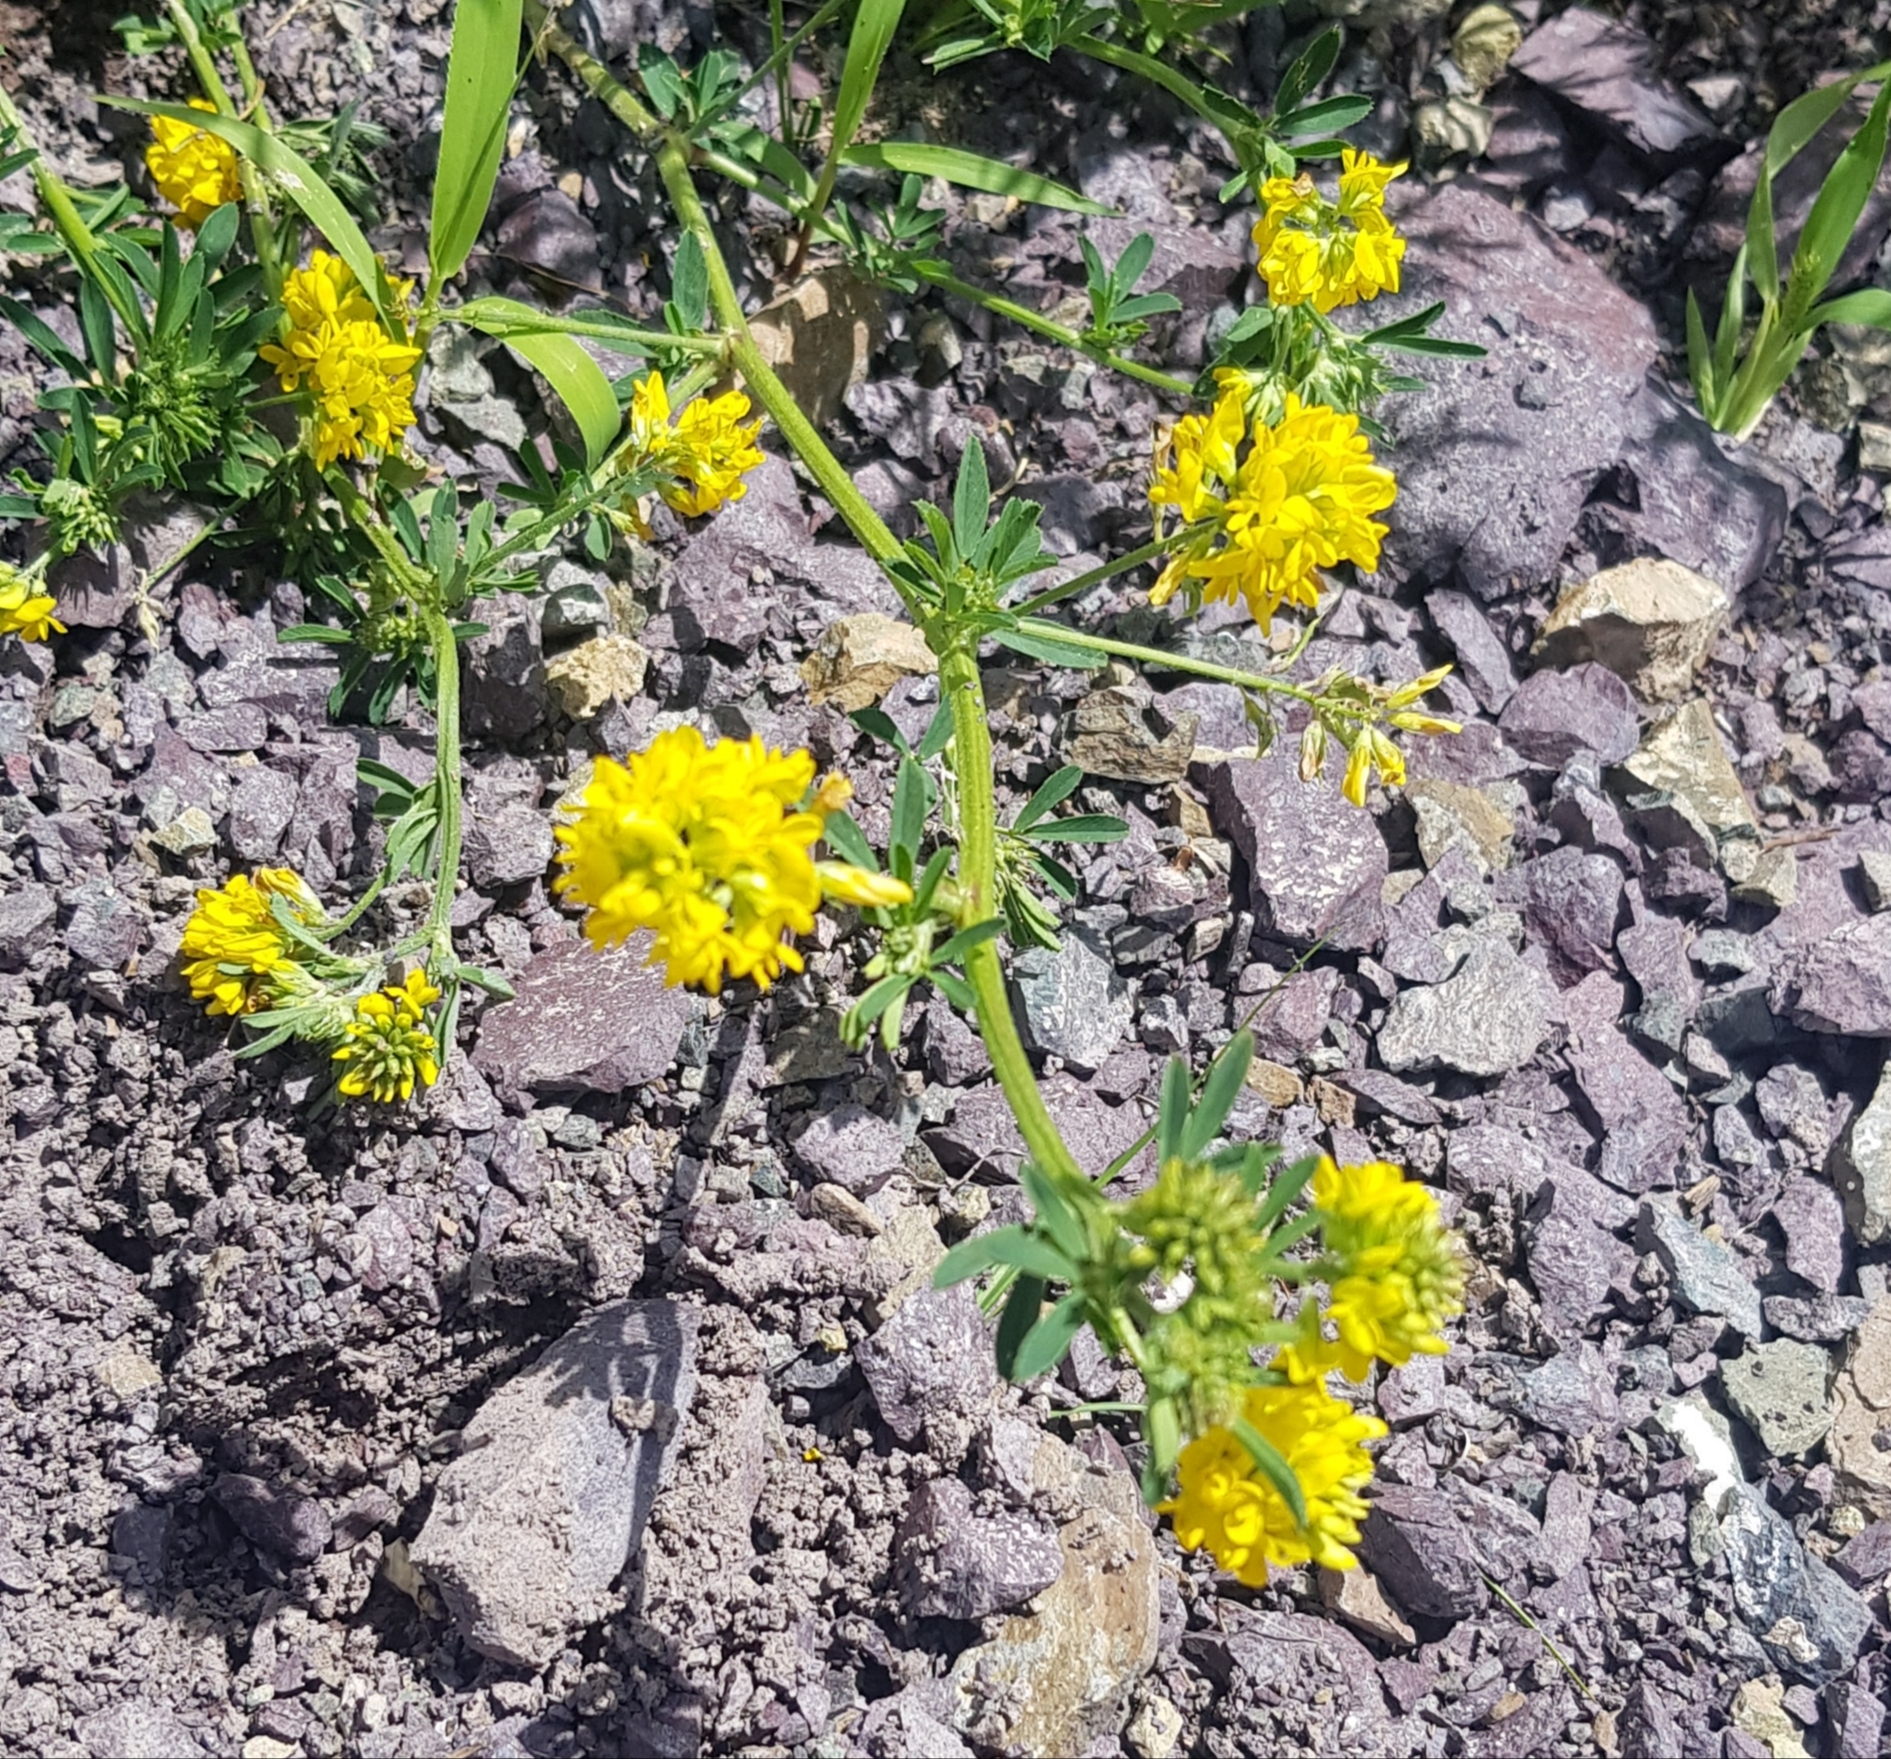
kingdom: Plantae
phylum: Tracheophyta
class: Magnoliopsida
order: Fabales
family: Fabaceae
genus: Medicago
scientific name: Medicago falcata
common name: Sickle medick
